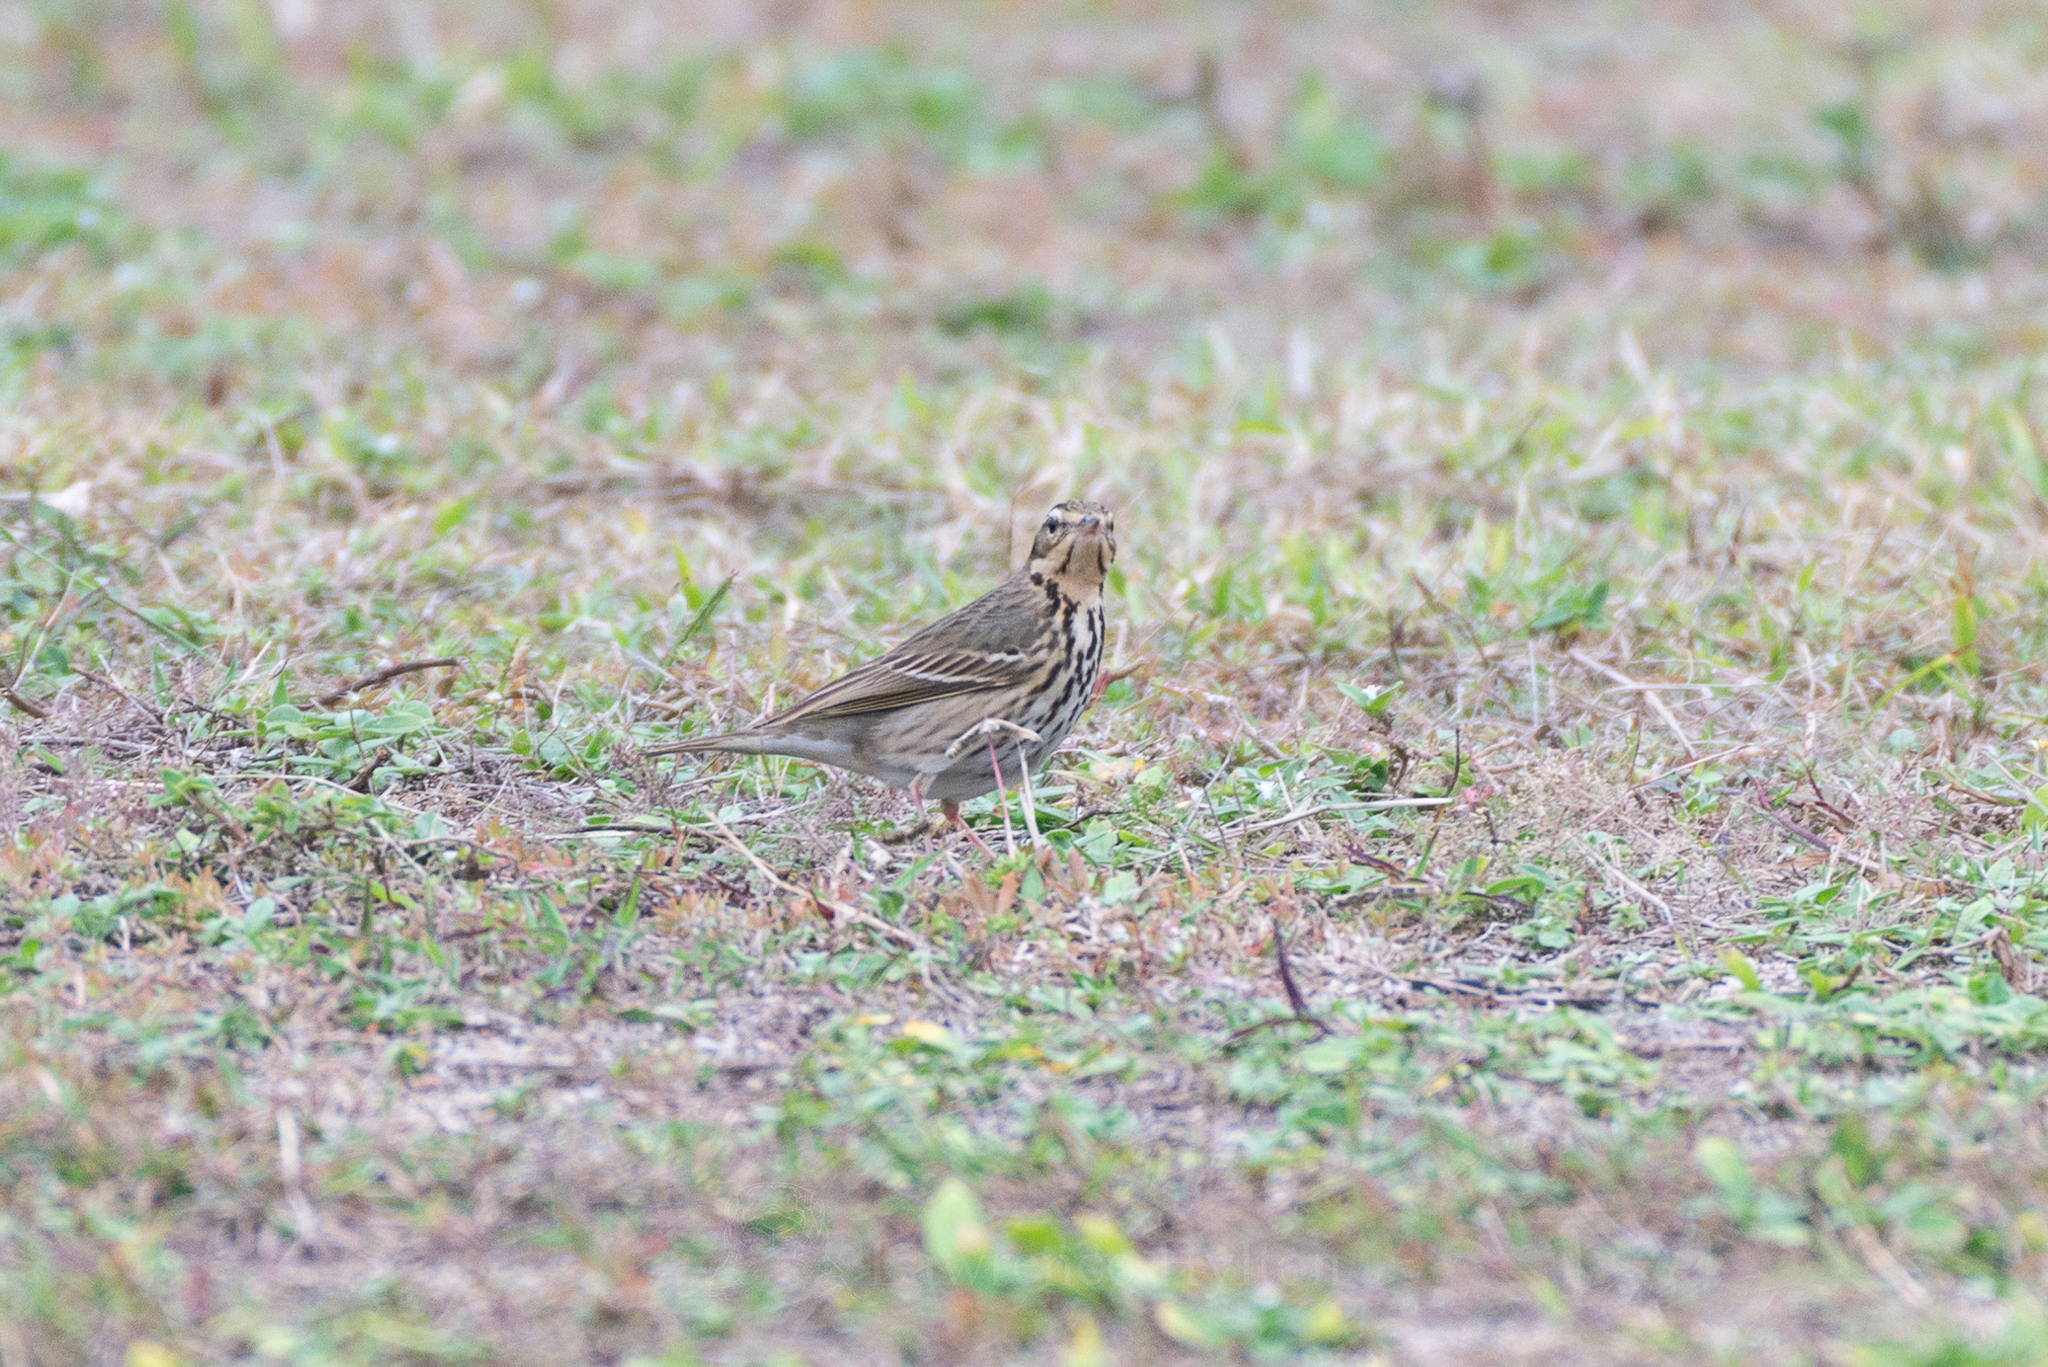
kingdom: Animalia
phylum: Chordata
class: Aves
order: Passeriformes
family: Motacillidae
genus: Anthus
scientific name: Anthus hodgsoni
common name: Olive-backed pipit
